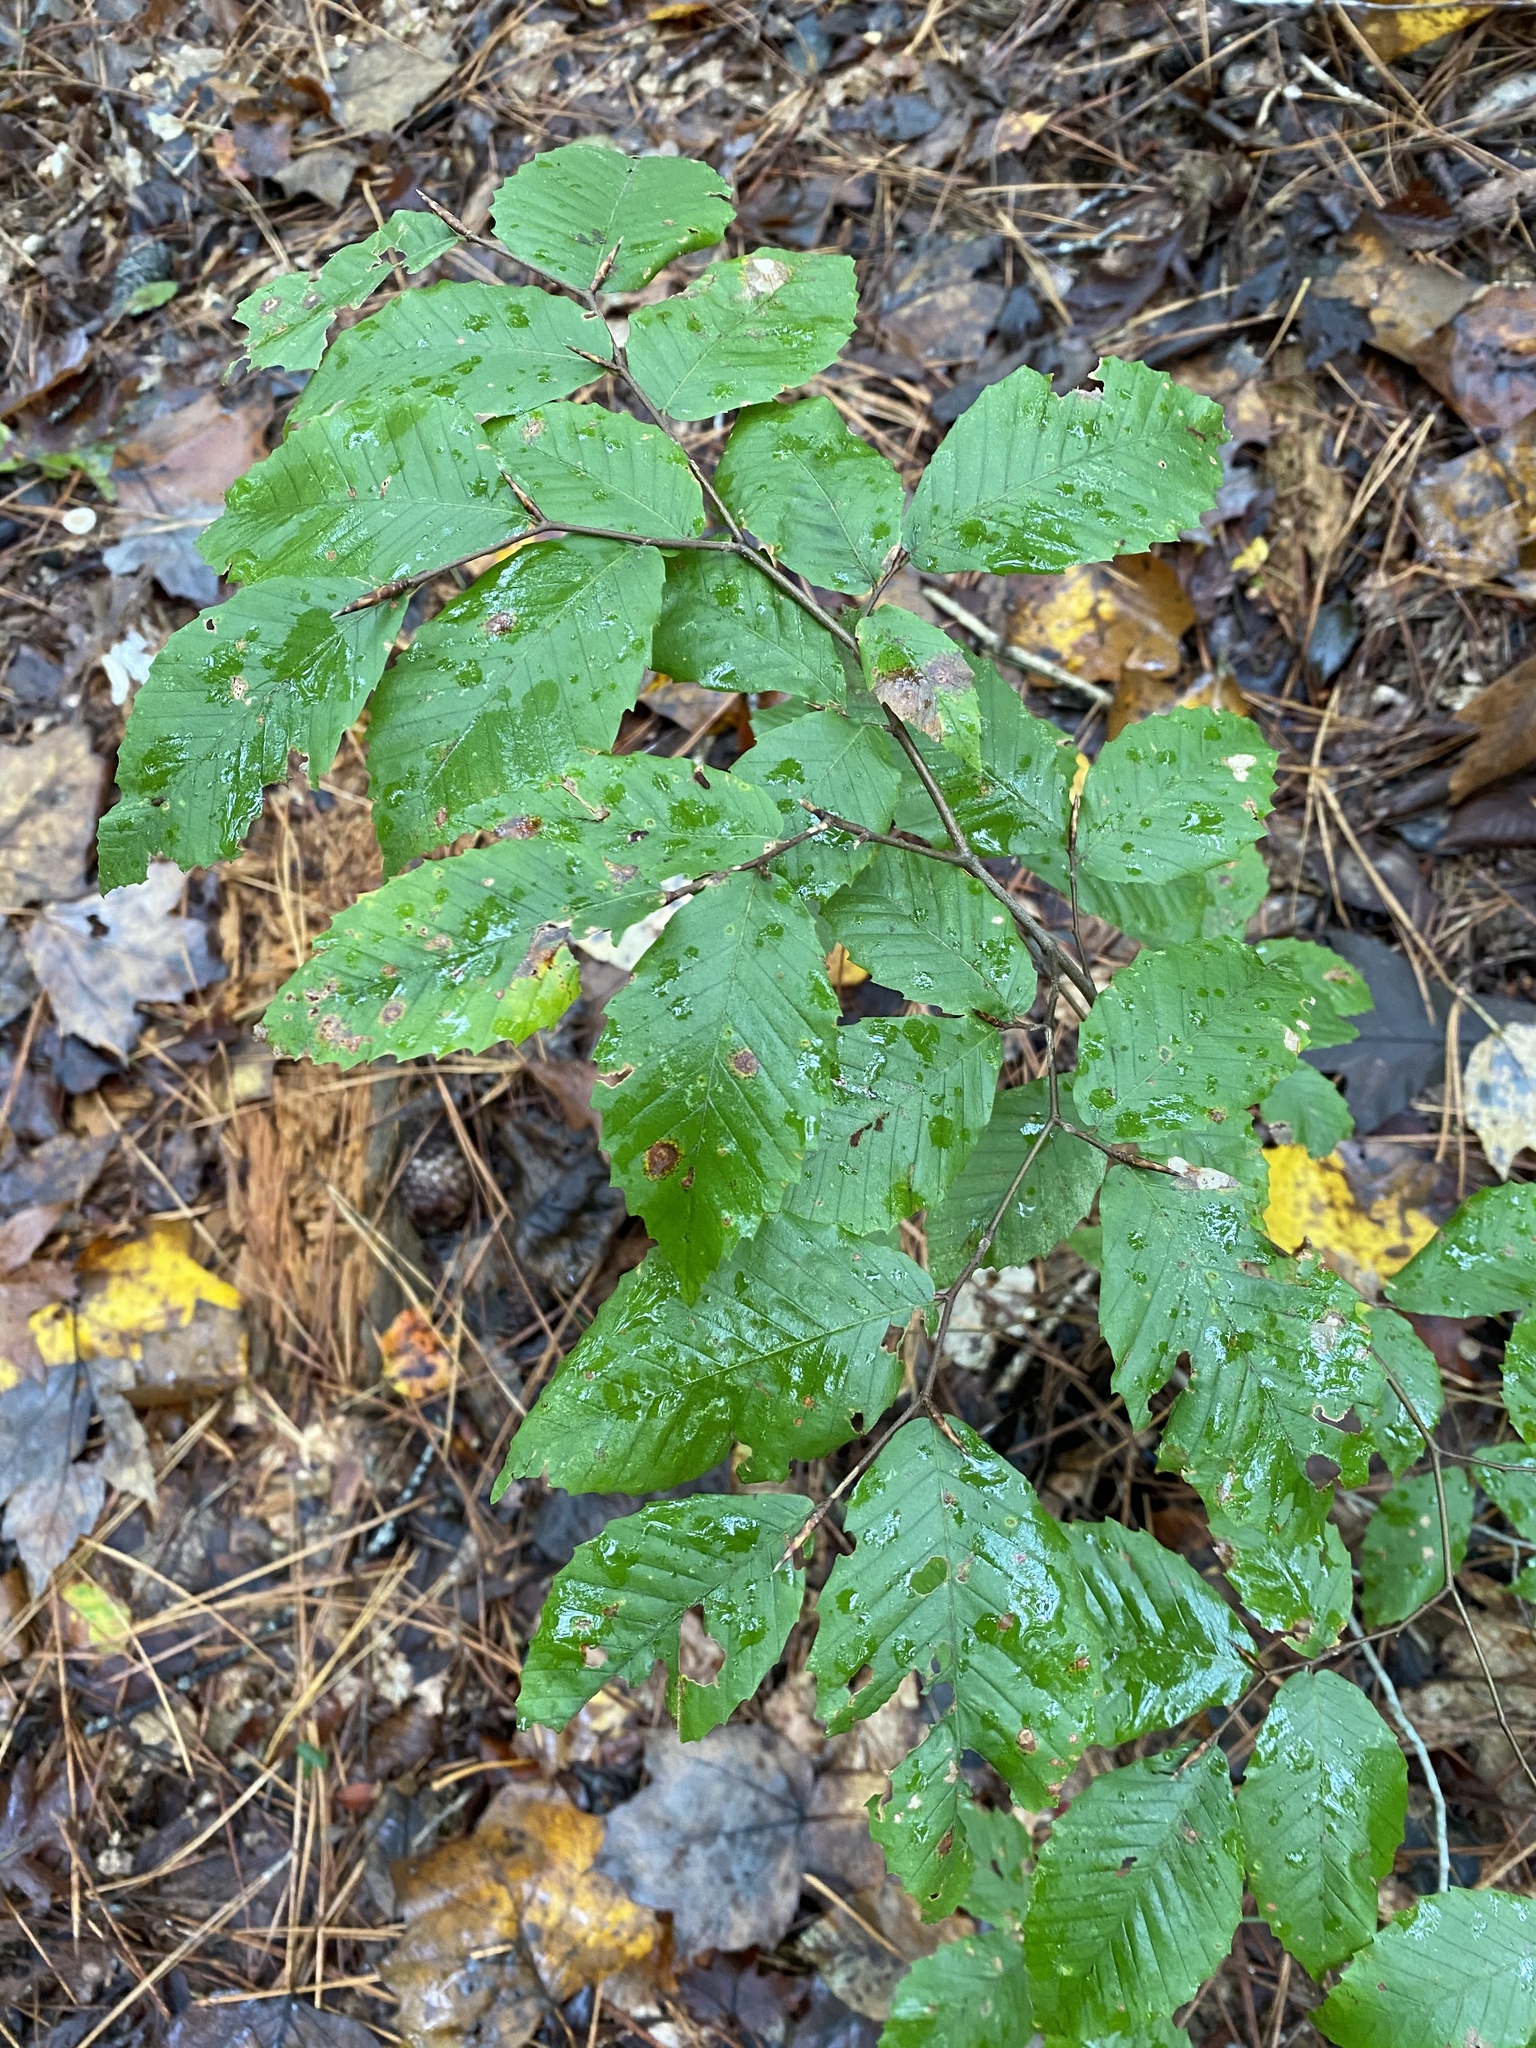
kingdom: Plantae
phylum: Tracheophyta
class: Magnoliopsida
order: Fagales
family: Fagaceae
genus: Fagus
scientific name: Fagus grandifolia
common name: American beech
